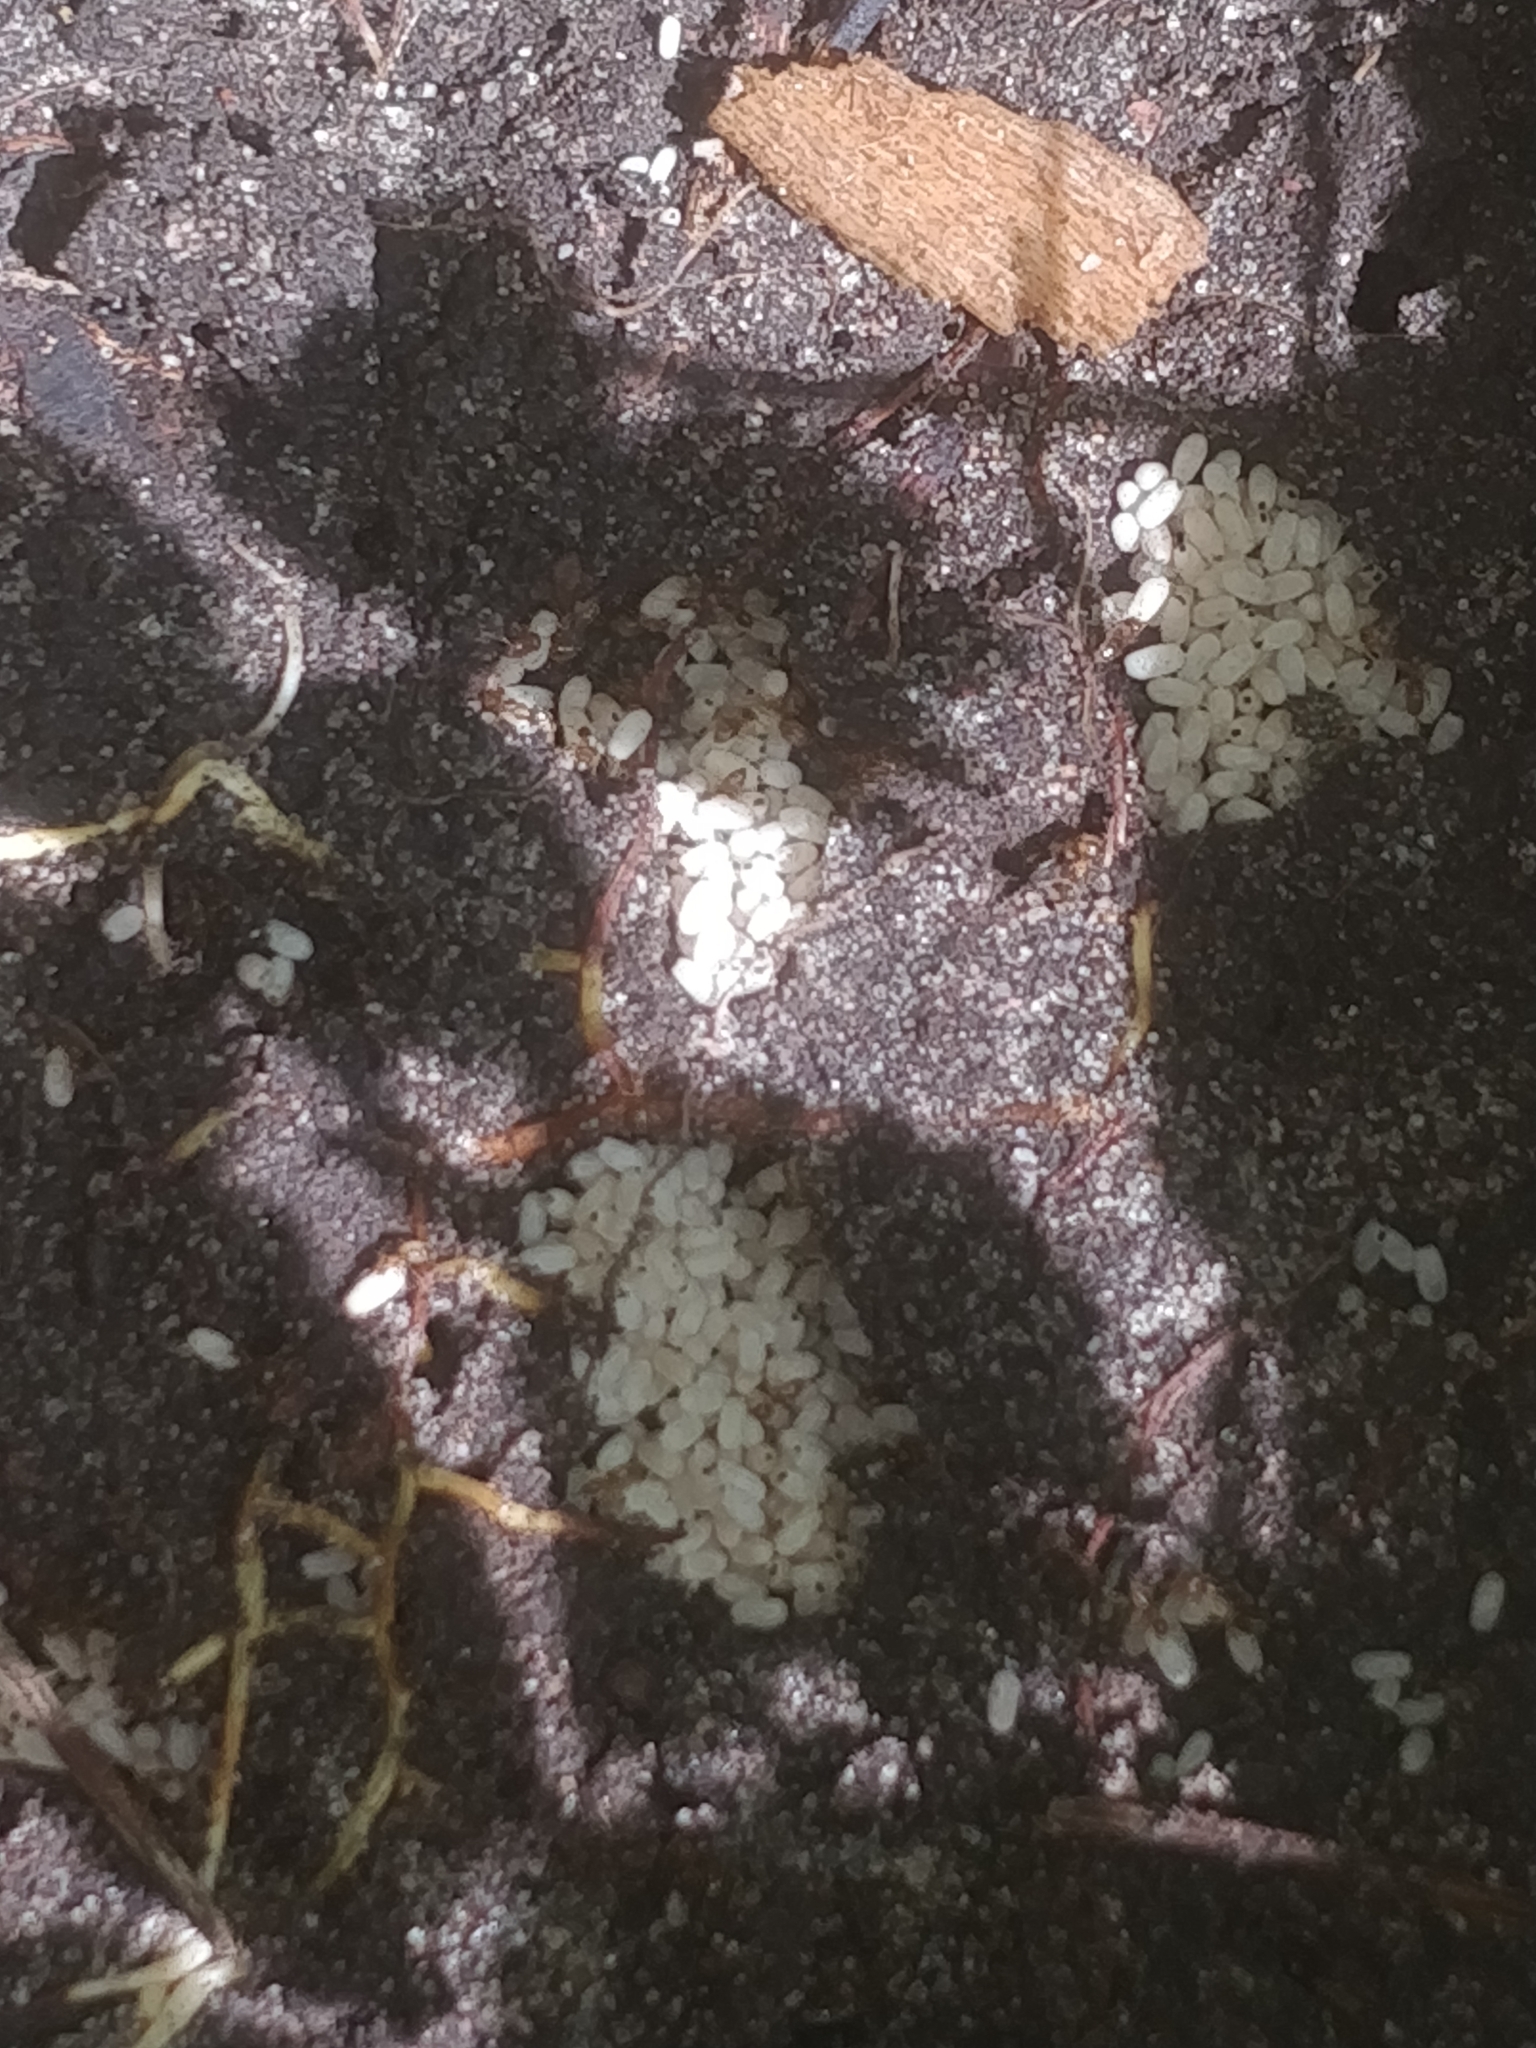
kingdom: Animalia
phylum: Arthropoda
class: Insecta
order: Hymenoptera
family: Formicidae
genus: Brachymyrmex
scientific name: Brachymyrmex depilis
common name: Hairless rover ant
